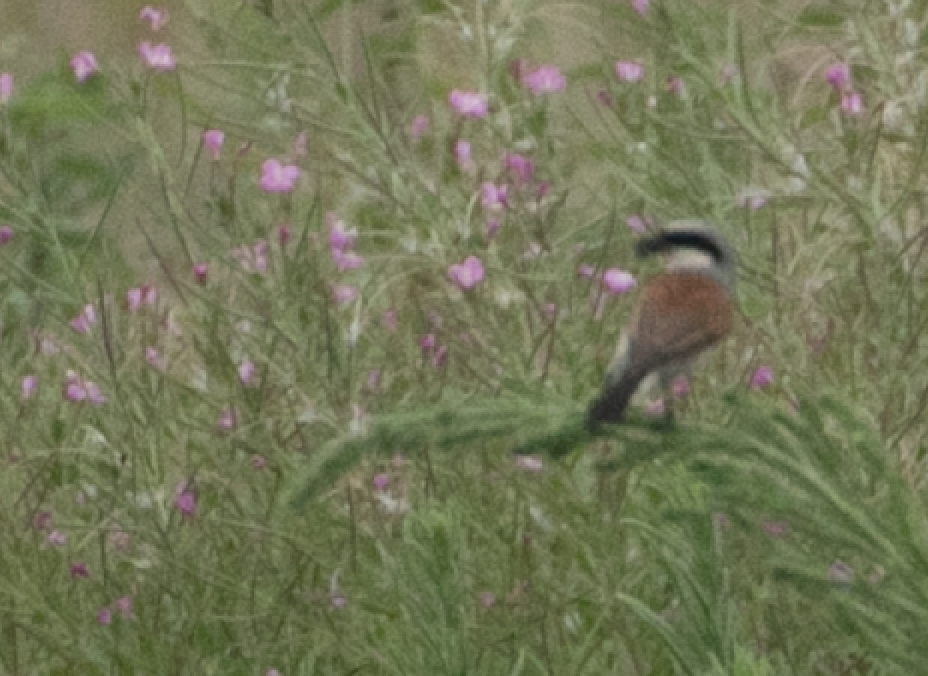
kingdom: Animalia
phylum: Chordata
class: Aves
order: Passeriformes
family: Laniidae
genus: Lanius
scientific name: Lanius collurio
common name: Red-backed shrike
